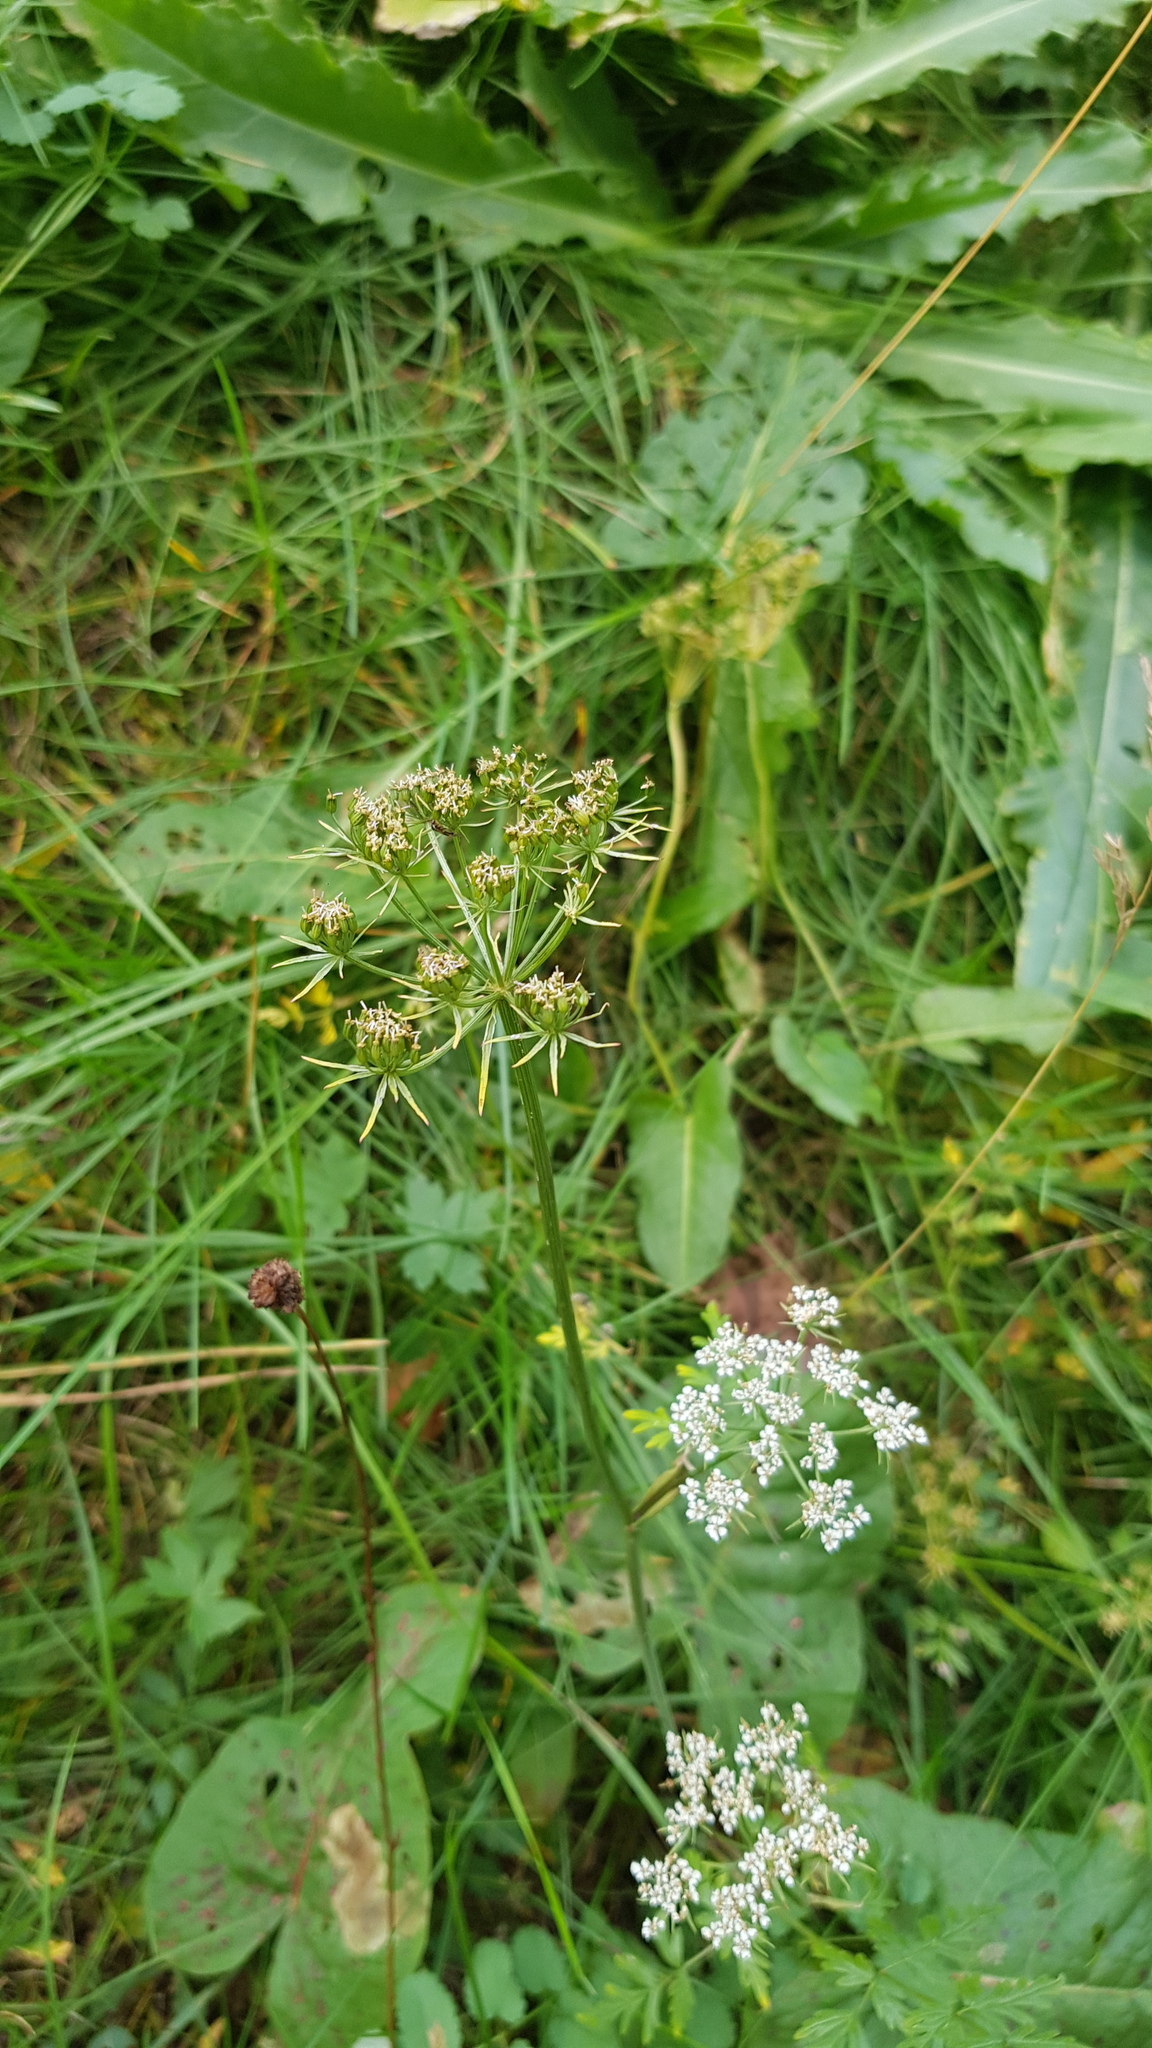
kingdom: Plantae
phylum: Tracheophyta
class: Magnoliopsida
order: Apiales
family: Apiaceae
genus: Conioselinum
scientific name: Conioselinum tataricum
